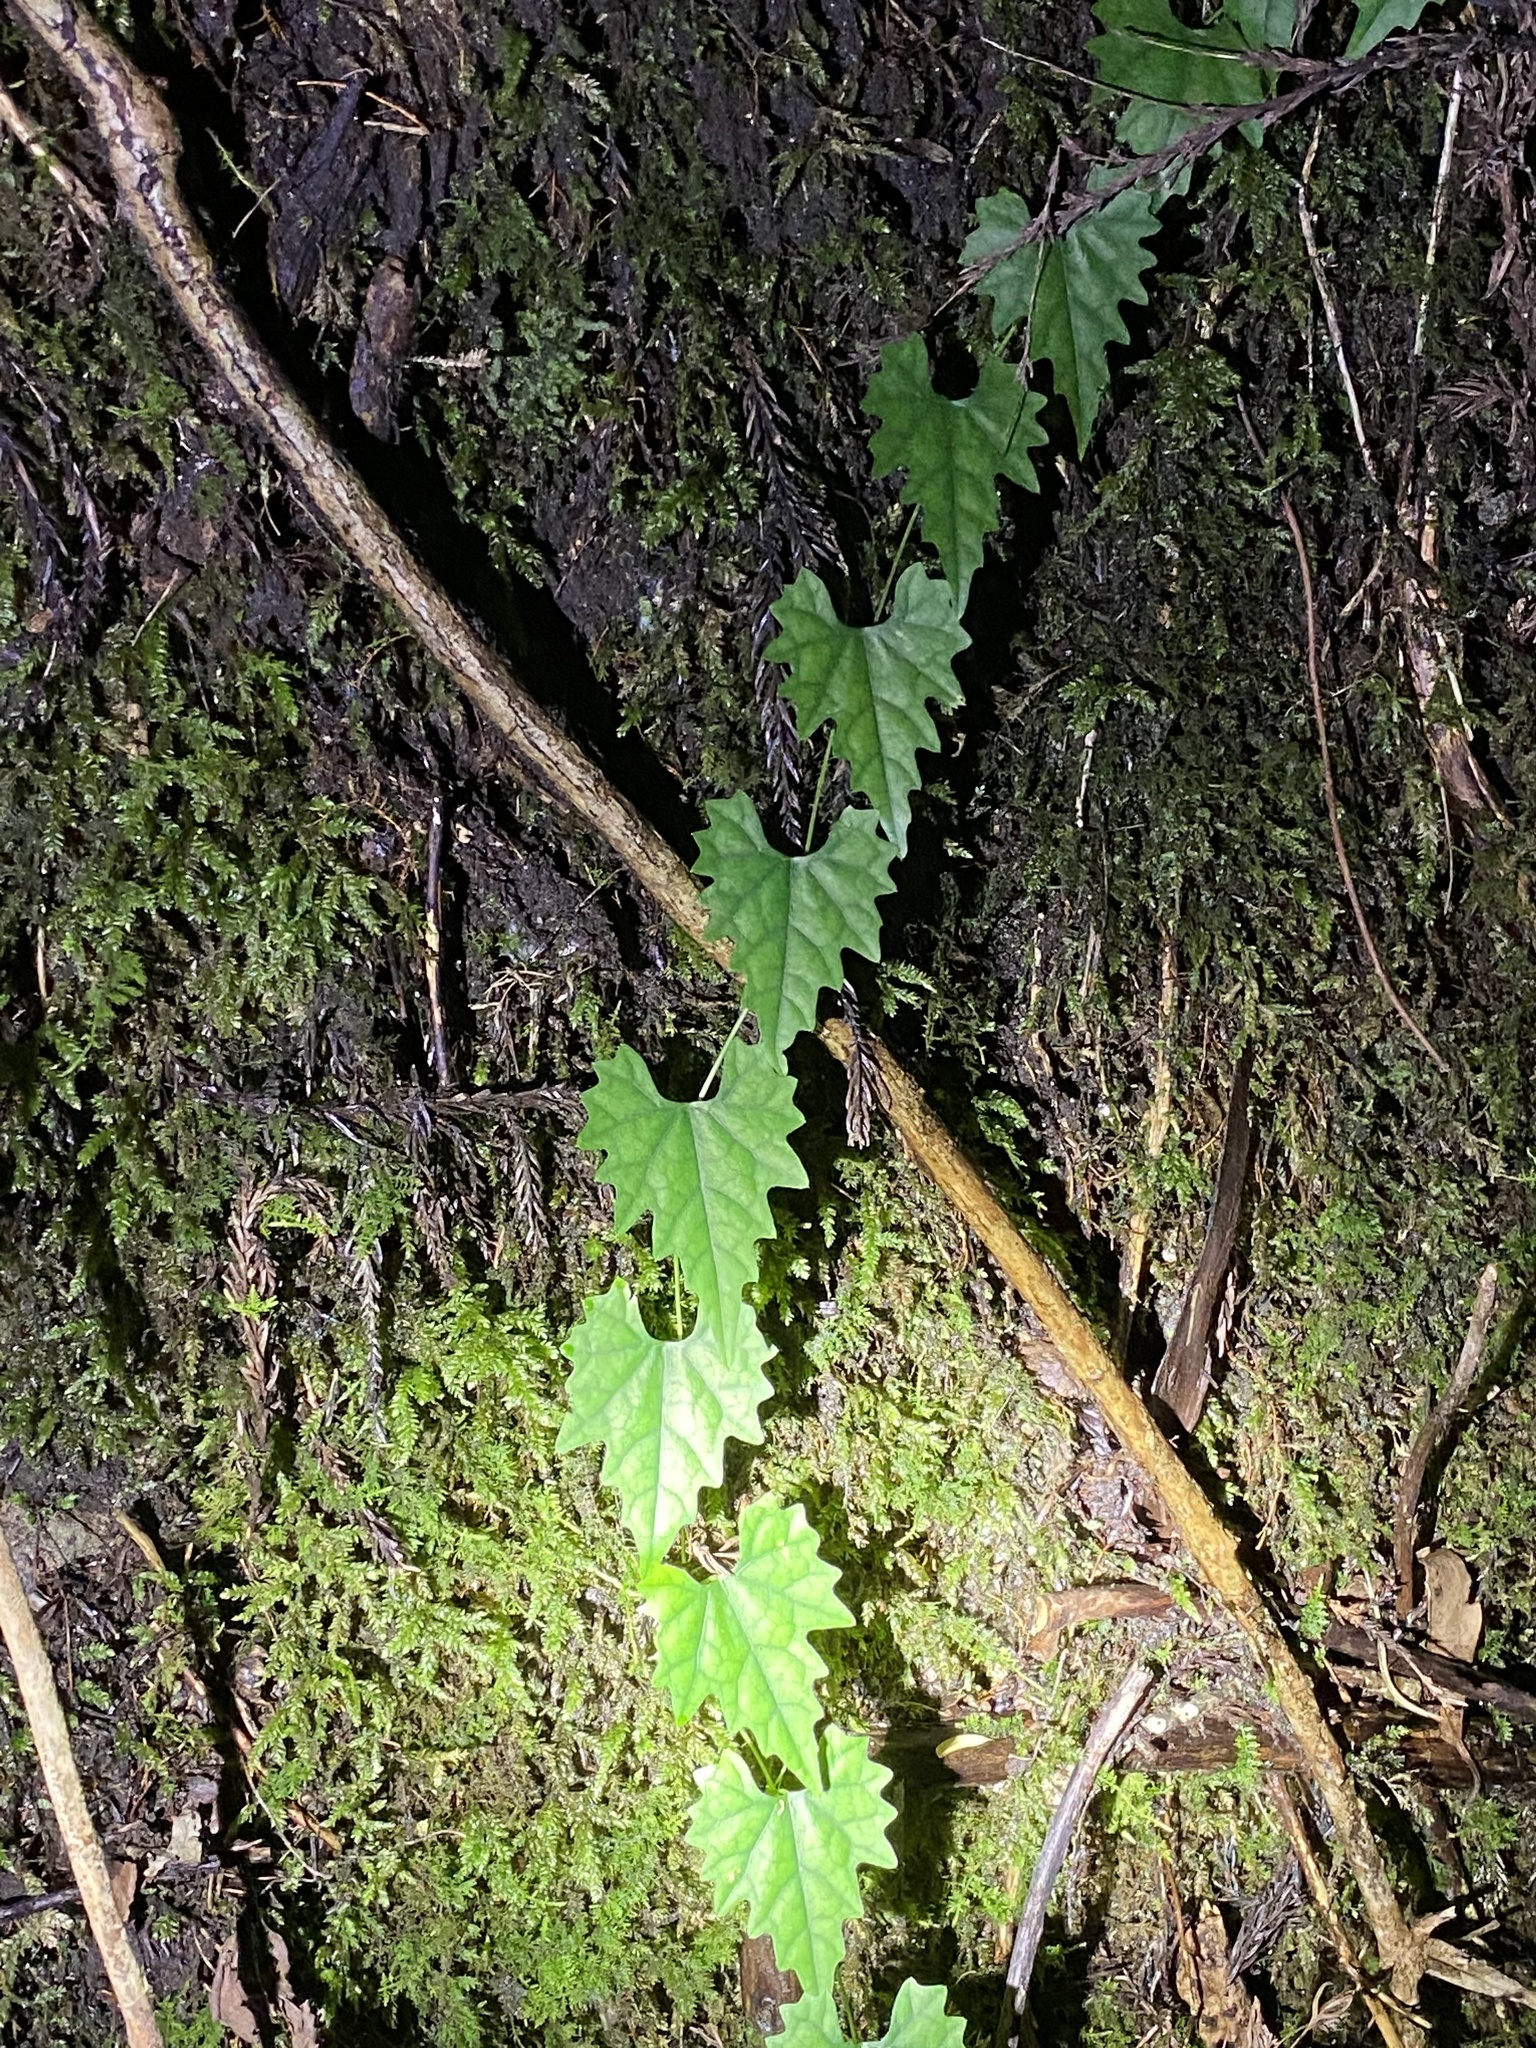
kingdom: Plantae
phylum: Tracheophyta
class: Magnoliopsida
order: Cucurbitales
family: Cucurbitaceae
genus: Trichosanthes
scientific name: Trichosanthes kirilowii
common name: Chinese-cucumber
